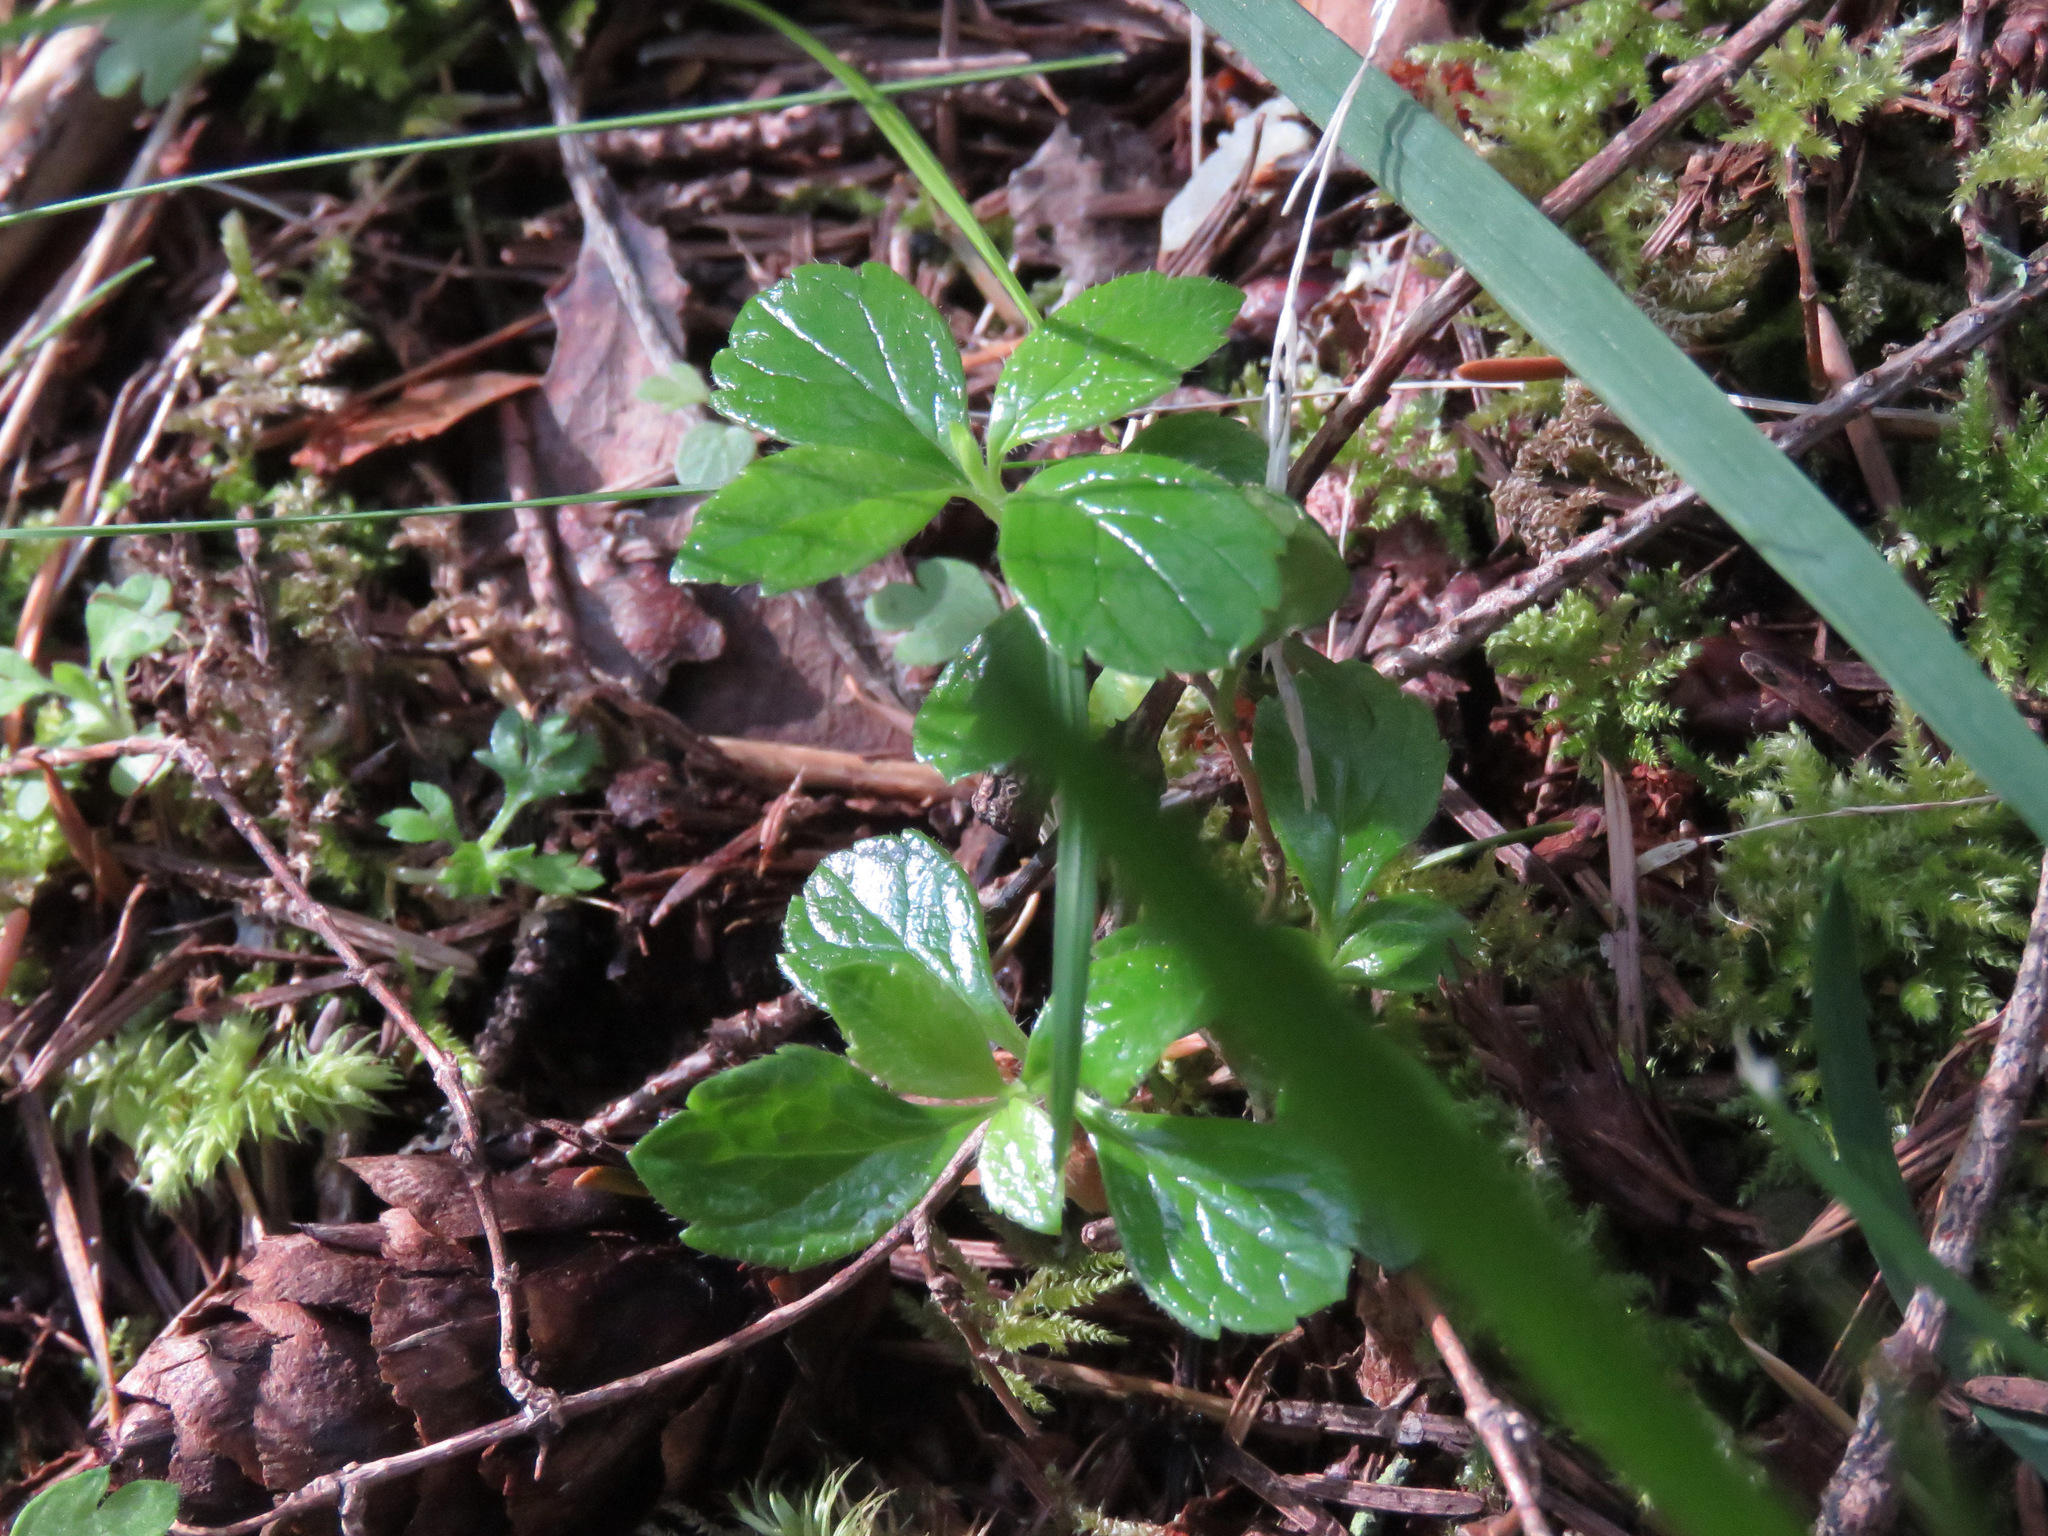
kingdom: Plantae
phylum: Tracheophyta
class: Magnoliopsida
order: Dipsacales
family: Caprifoliaceae
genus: Linnaea
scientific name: Linnaea borealis
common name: Twinflower
